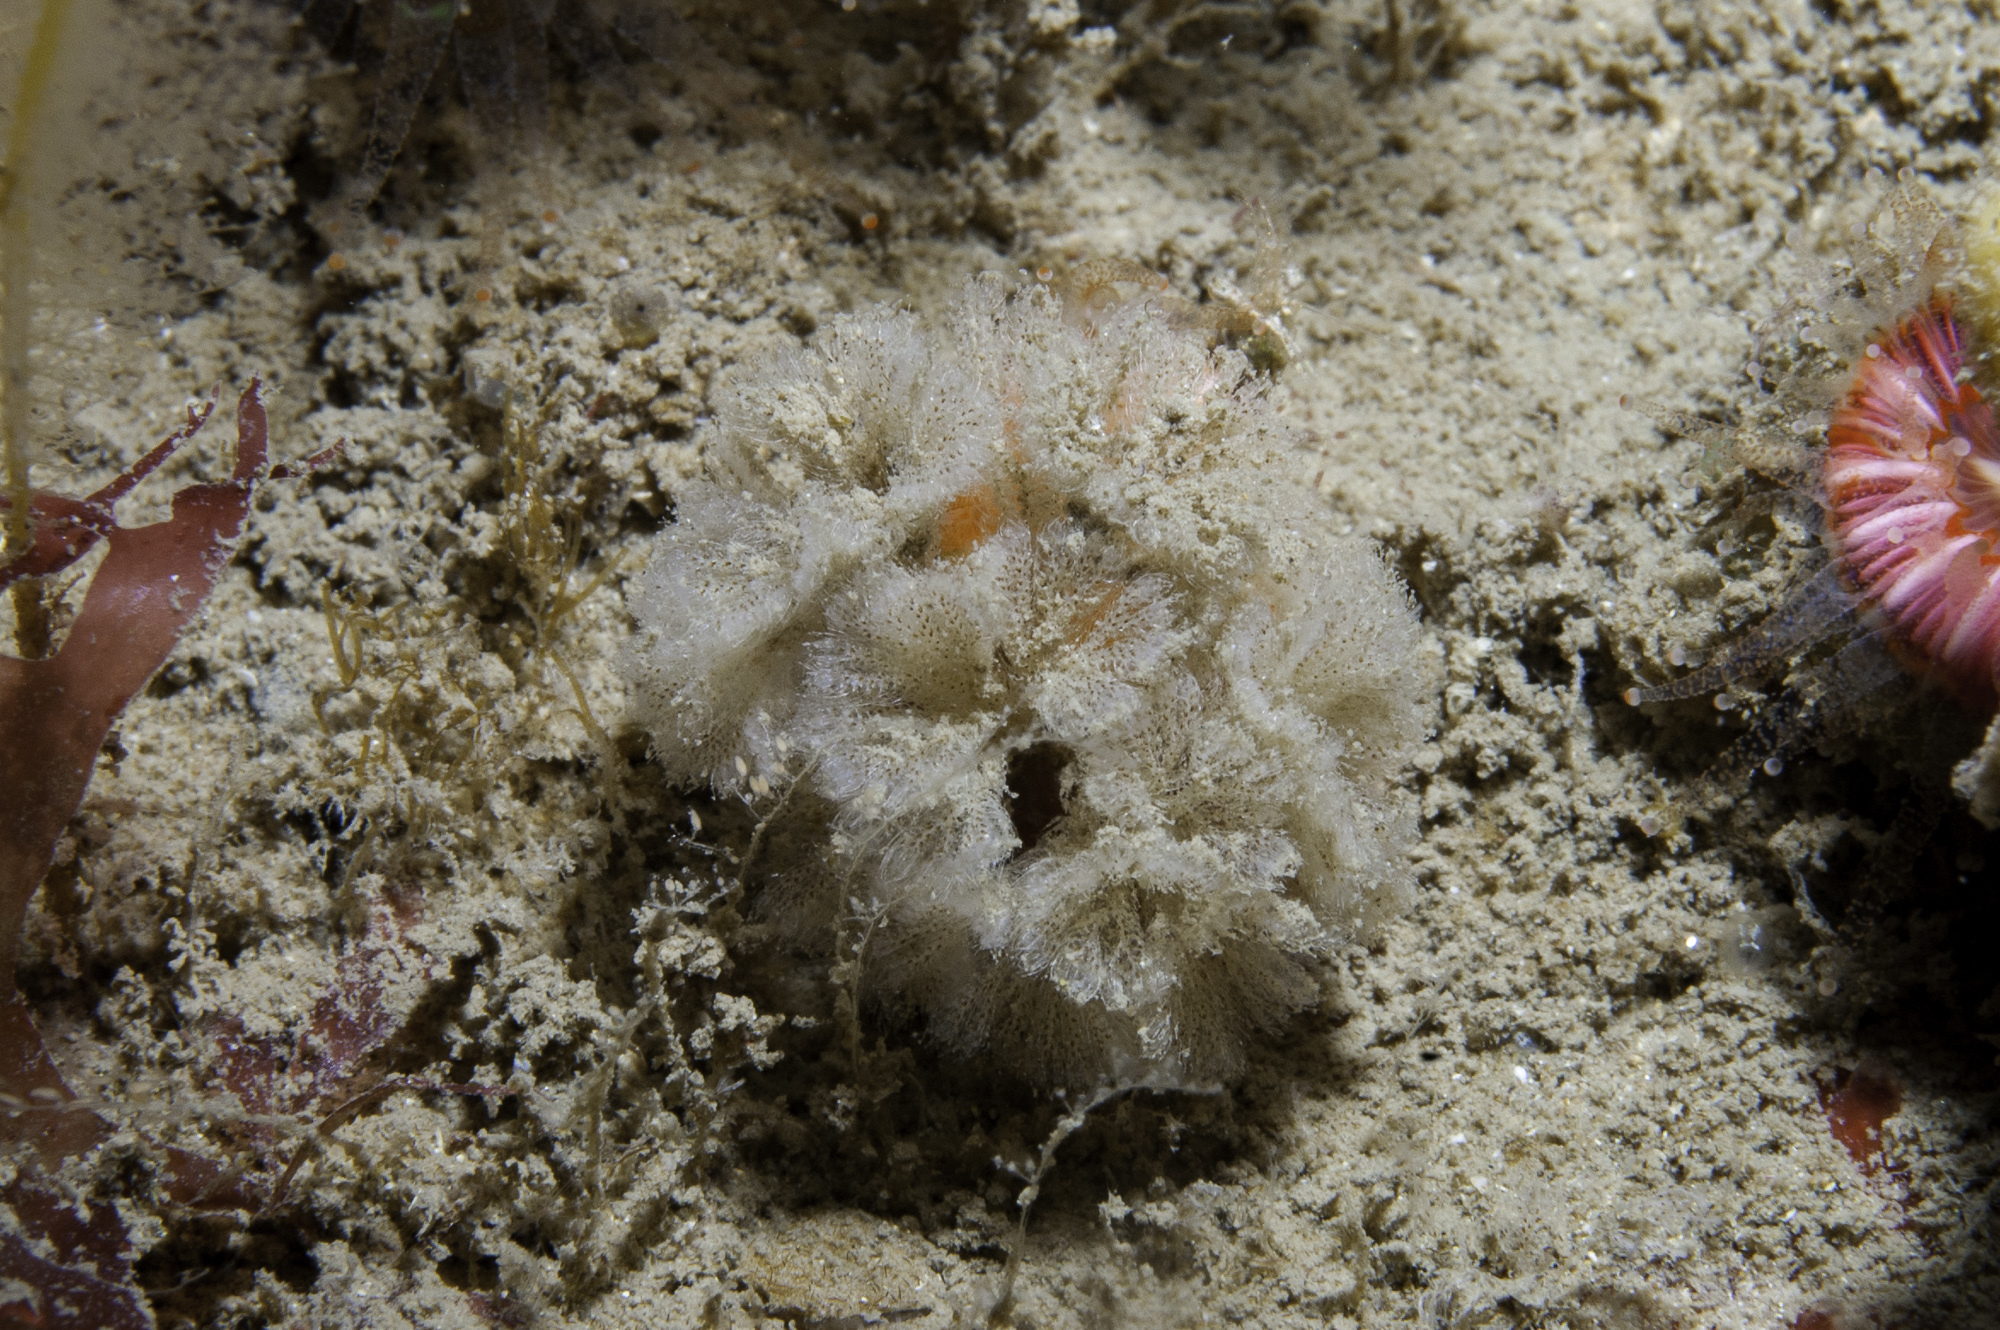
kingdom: Animalia
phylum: Bryozoa
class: Gymnolaemata
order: Cheilostomatida
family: Bugulidae
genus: Bicellariella
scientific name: Bicellariella ciliata
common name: Furry bryozoan
